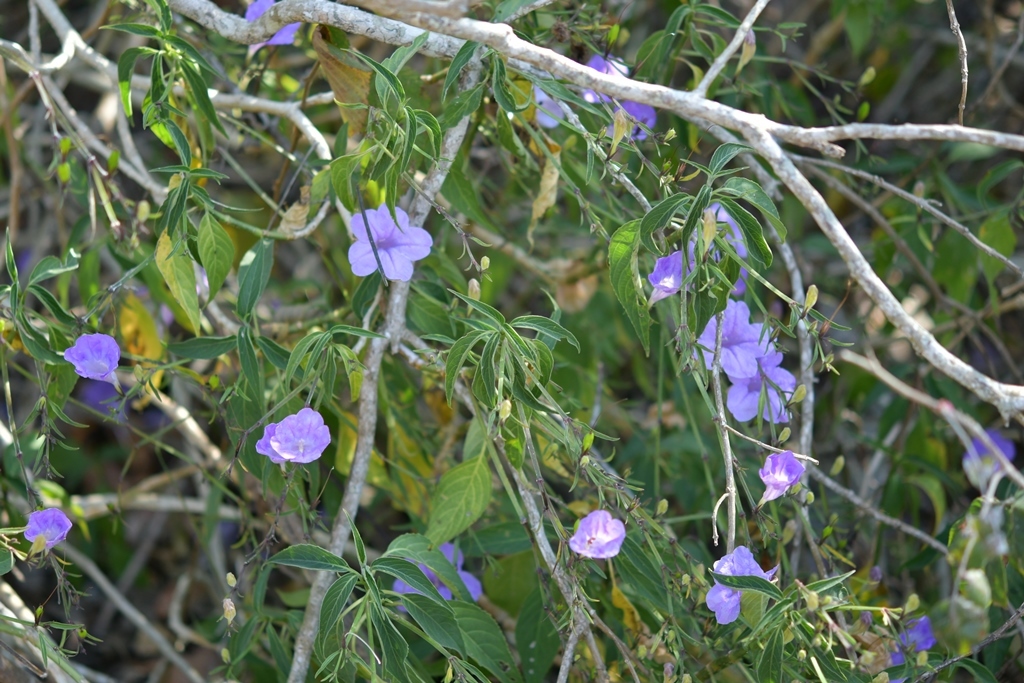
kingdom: Plantae
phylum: Tracheophyta
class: Magnoliopsida
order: Lamiales
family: Acanthaceae
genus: Ruellia
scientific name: Ruellia breedlovei
